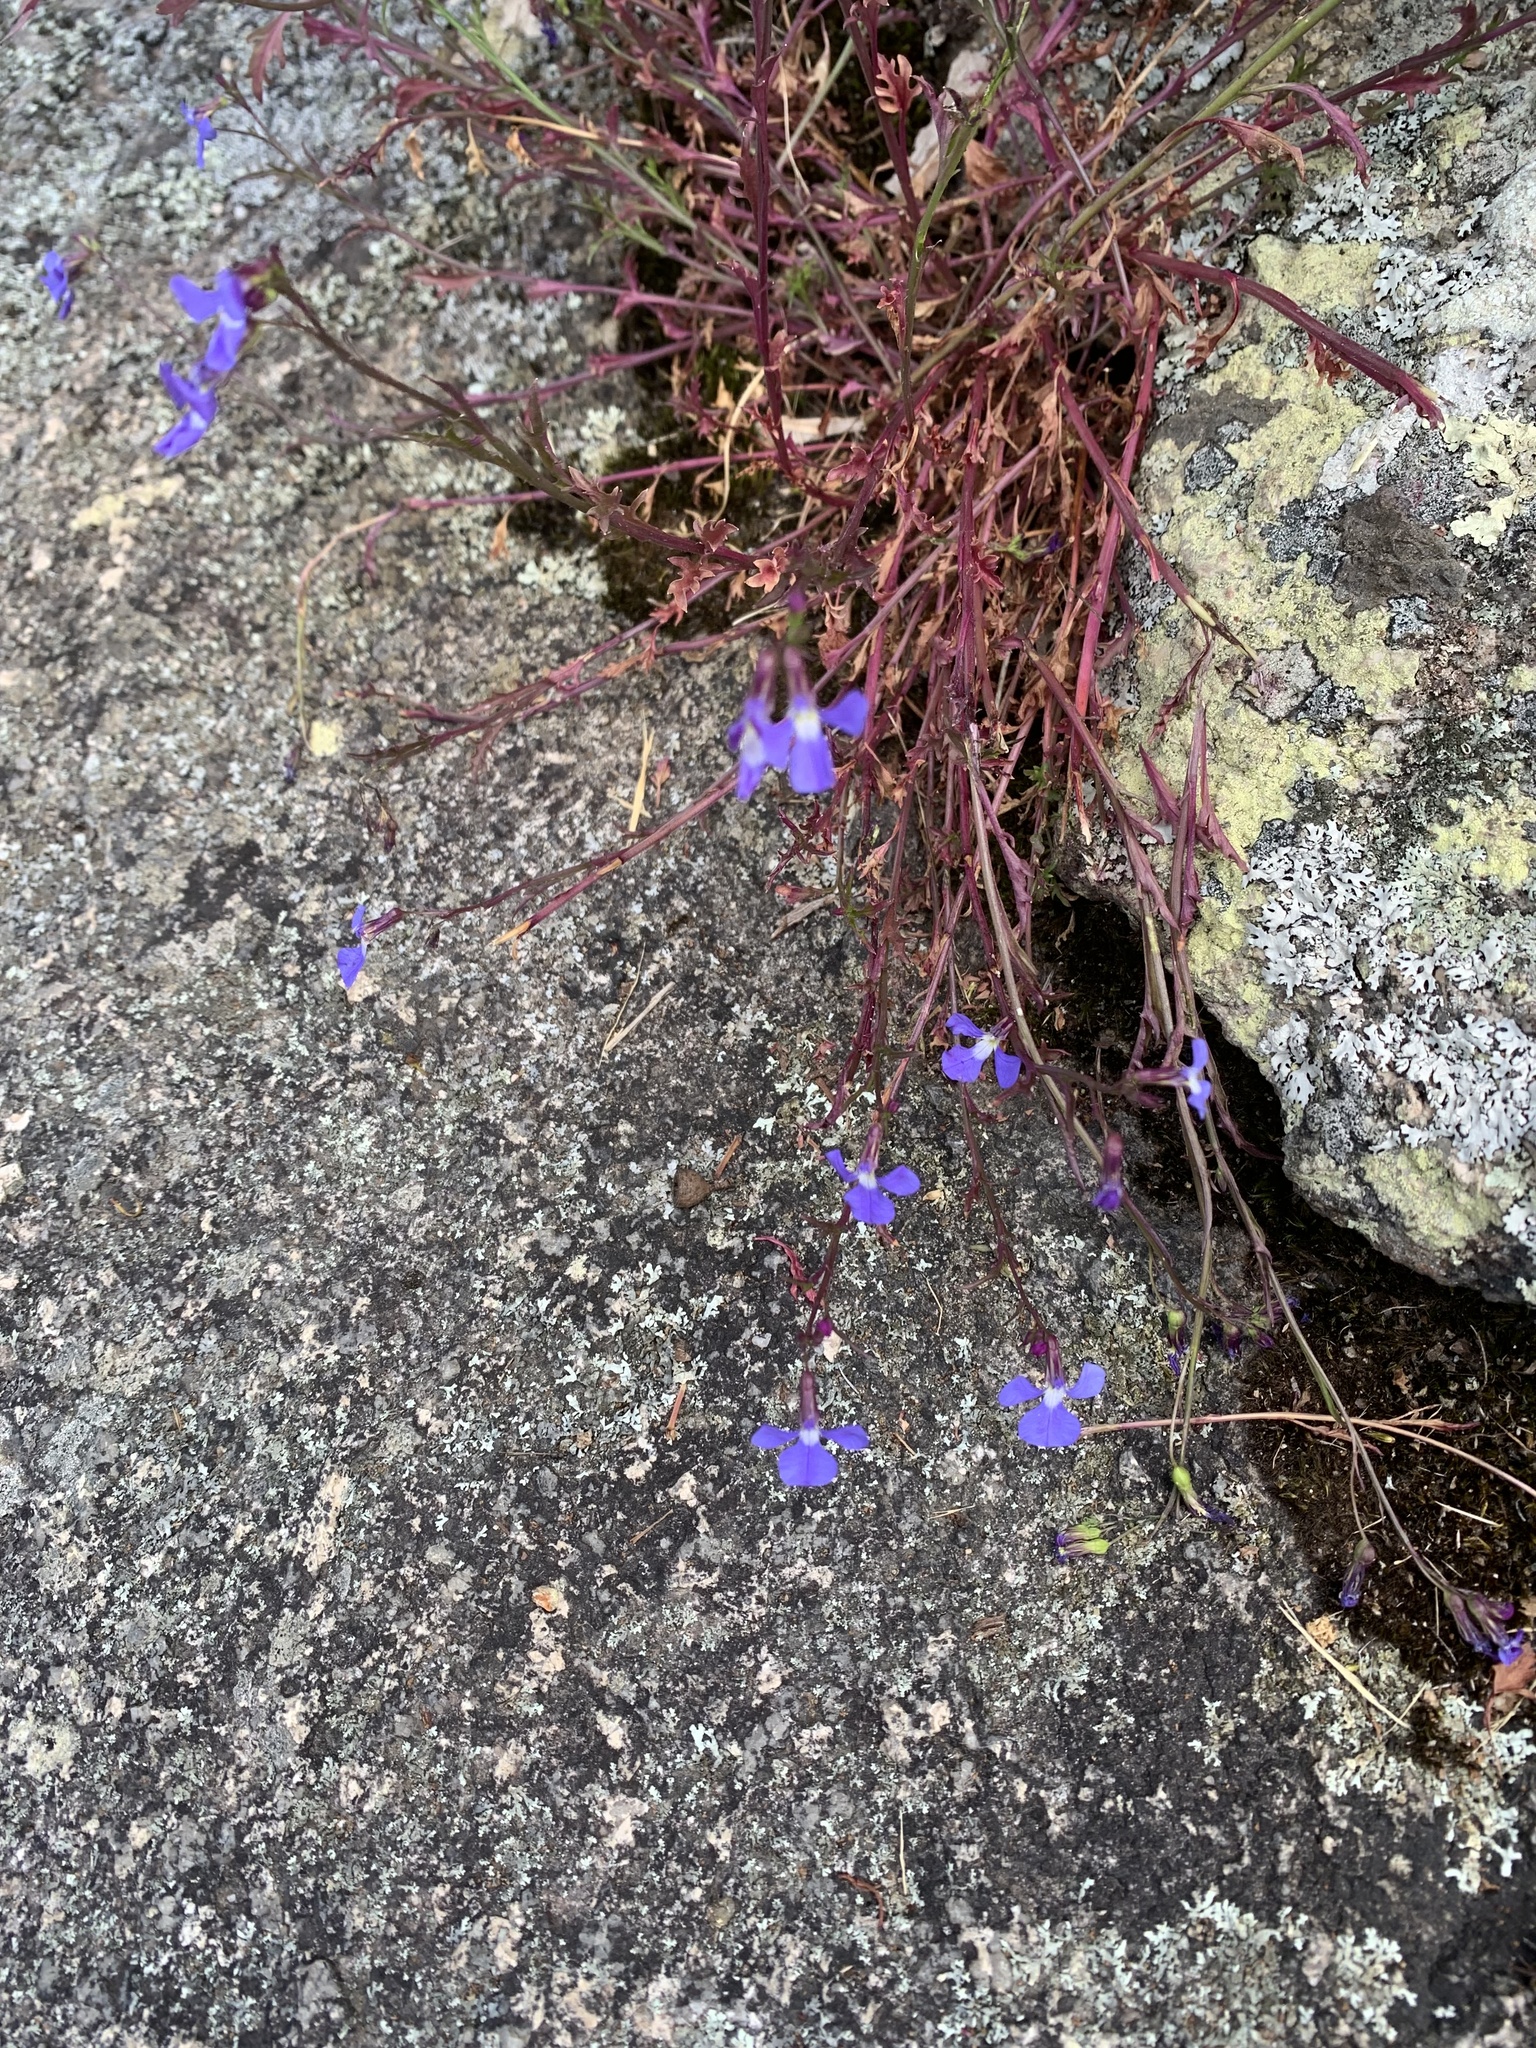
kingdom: Plantae
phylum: Tracheophyta
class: Magnoliopsida
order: Asterales
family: Campanulaceae
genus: Lobelia
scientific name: Lobelia andrewsii
